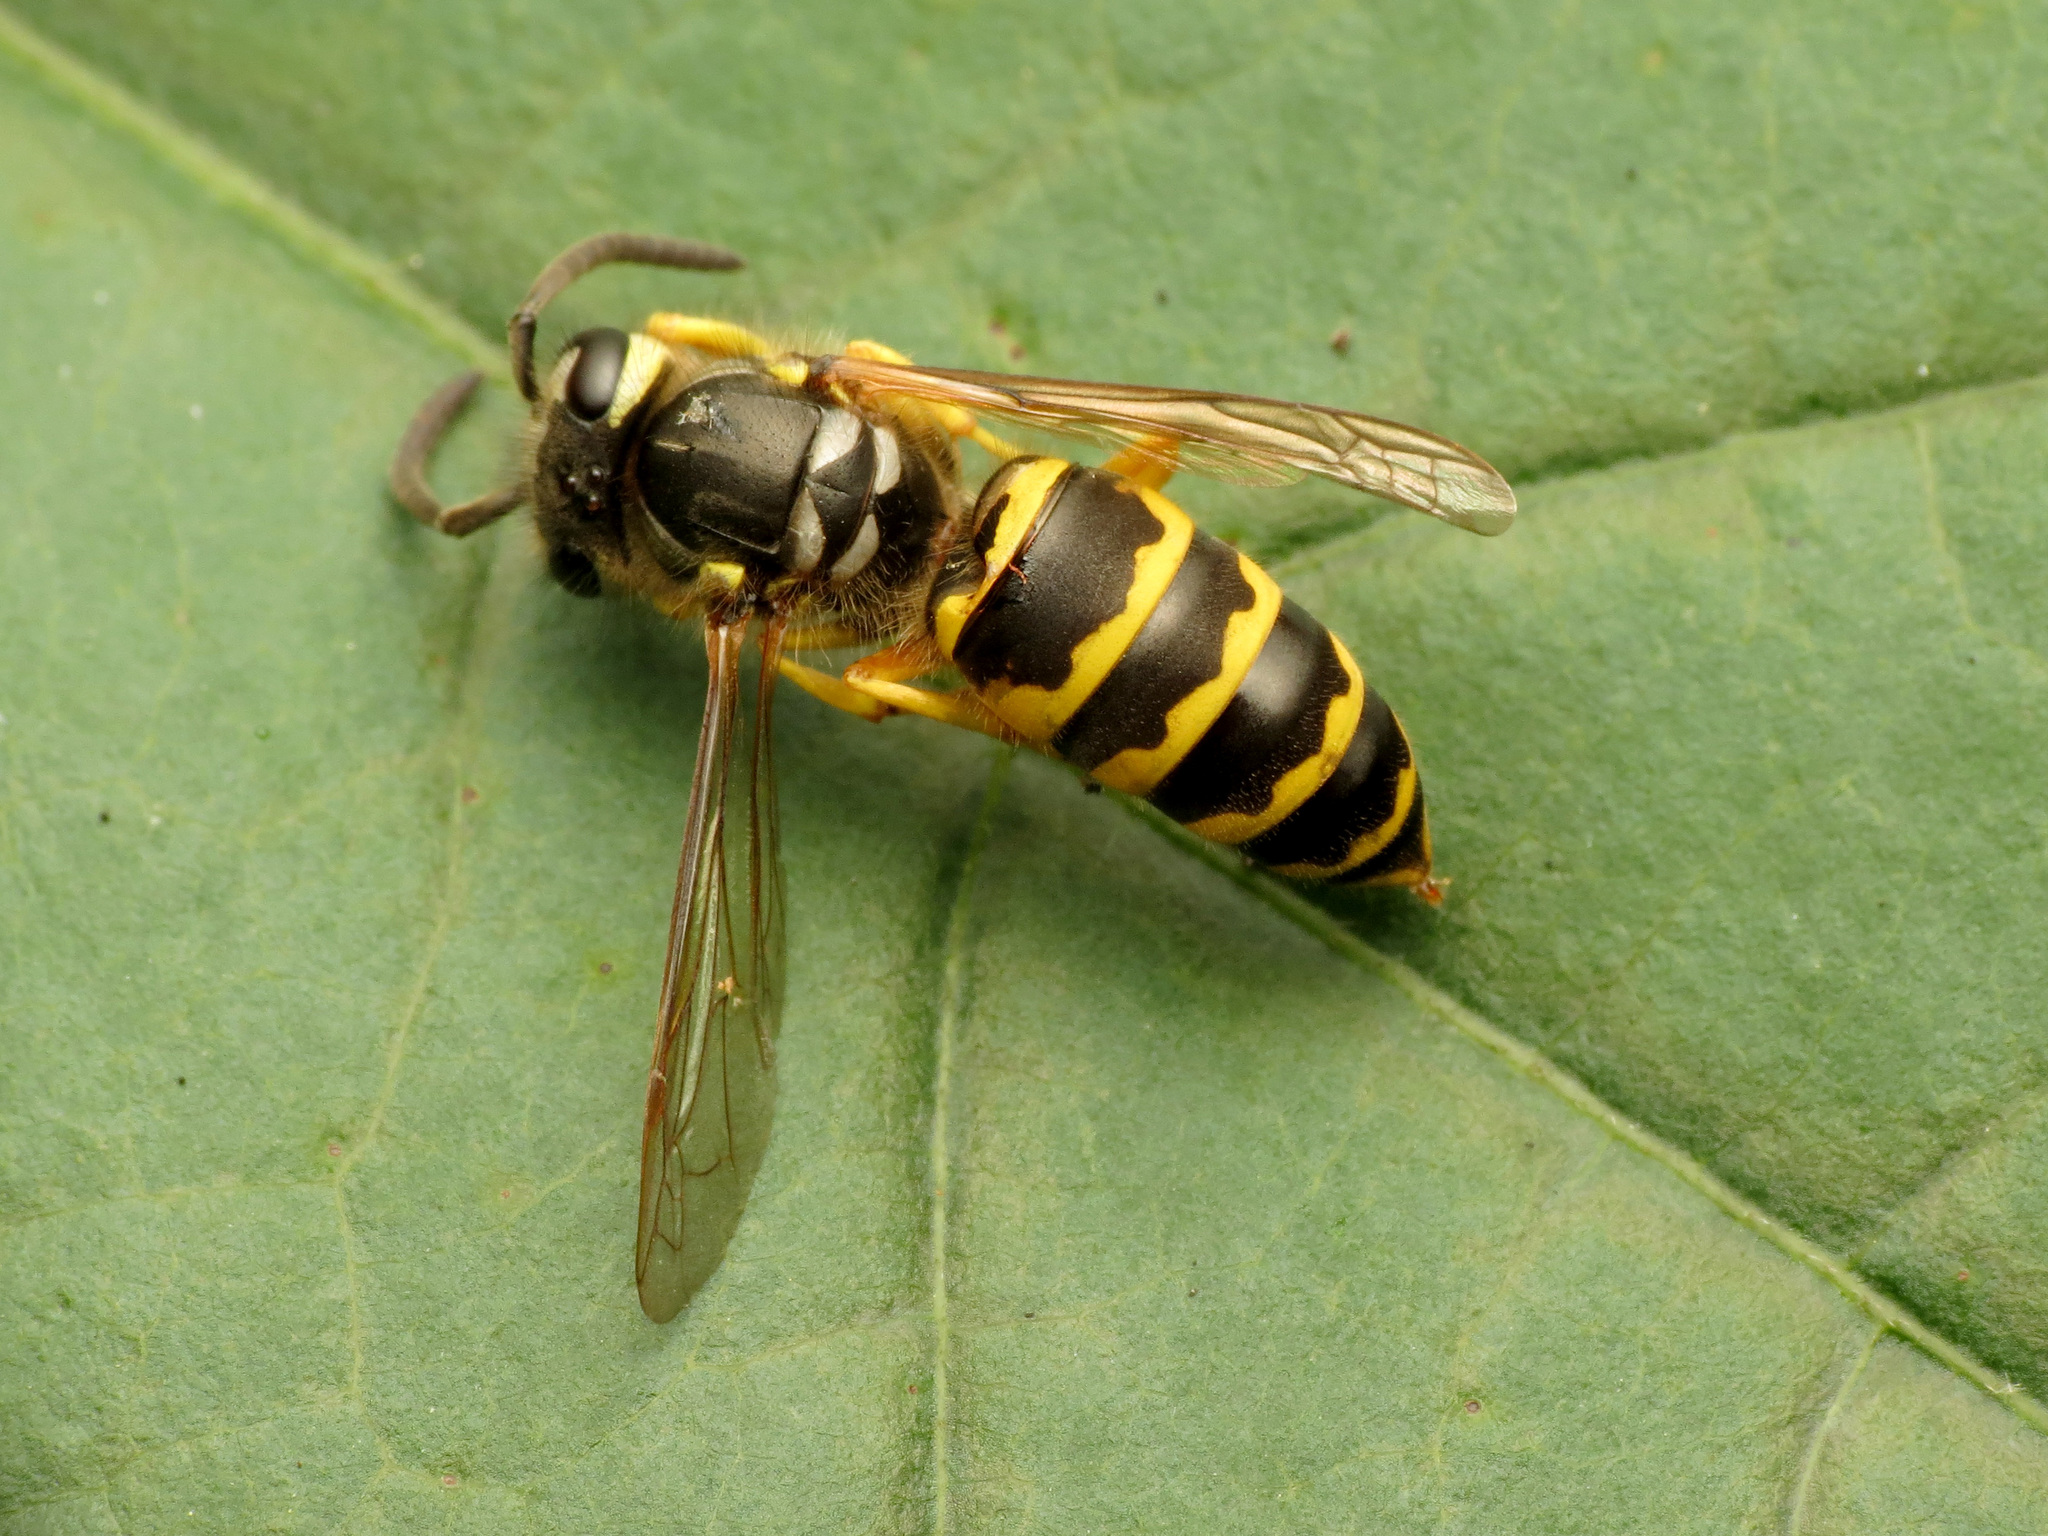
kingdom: Animalia
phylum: Arthropoda
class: Insecta
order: Hymenoptera
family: Vespidae
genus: Vespula
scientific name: Vespula maculifrons
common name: Eastern yellowjacket
